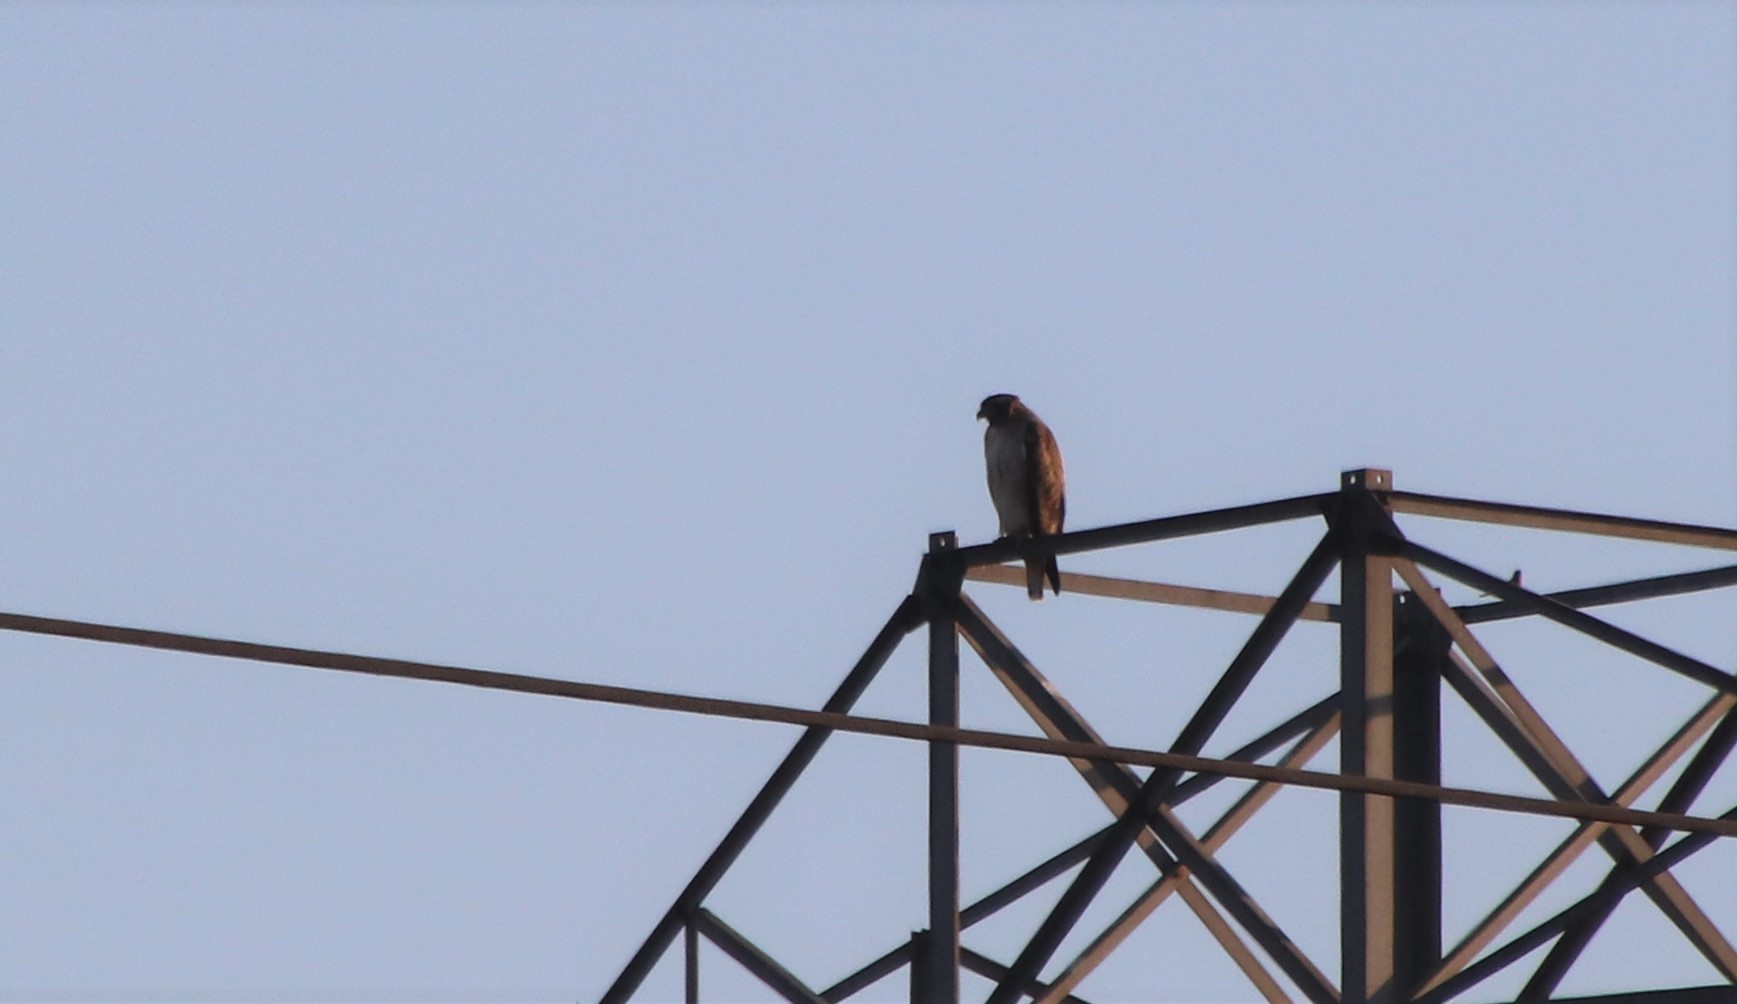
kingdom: Animalia
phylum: Chordata
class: Aves
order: Accipitriformes
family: Accipitridae
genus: Buteo
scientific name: Buteo jamaicensis
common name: Red-tailed hawk
